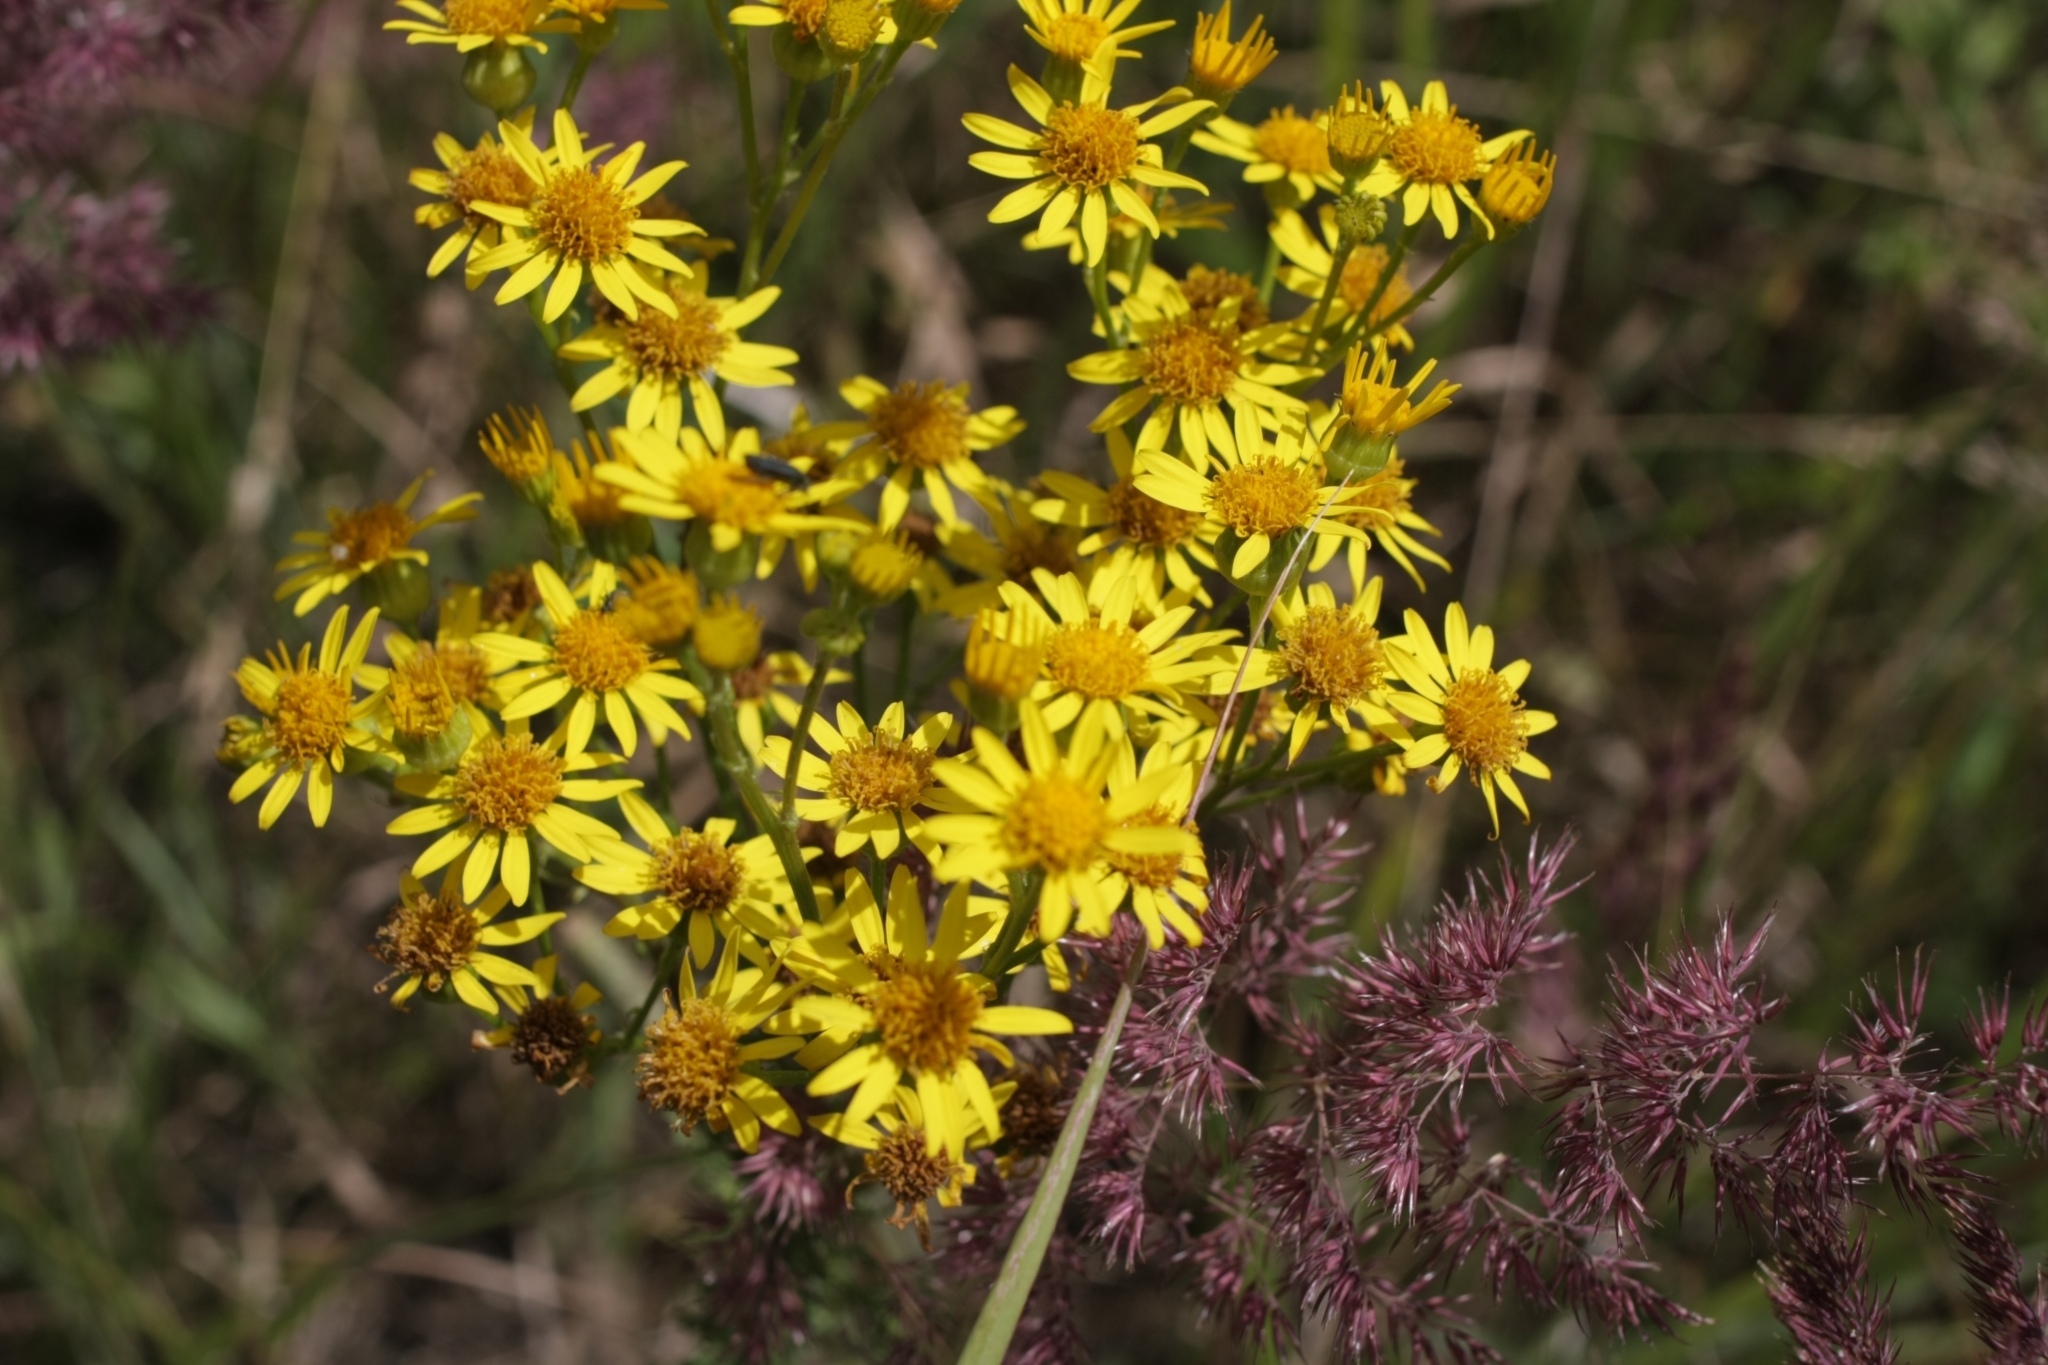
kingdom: Plantae
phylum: Tracheophyta
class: Magnoliopsida
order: Asterales
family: Asteraceae
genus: Jacobaea
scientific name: Jacobaea vulgaris
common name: Stinking willie
